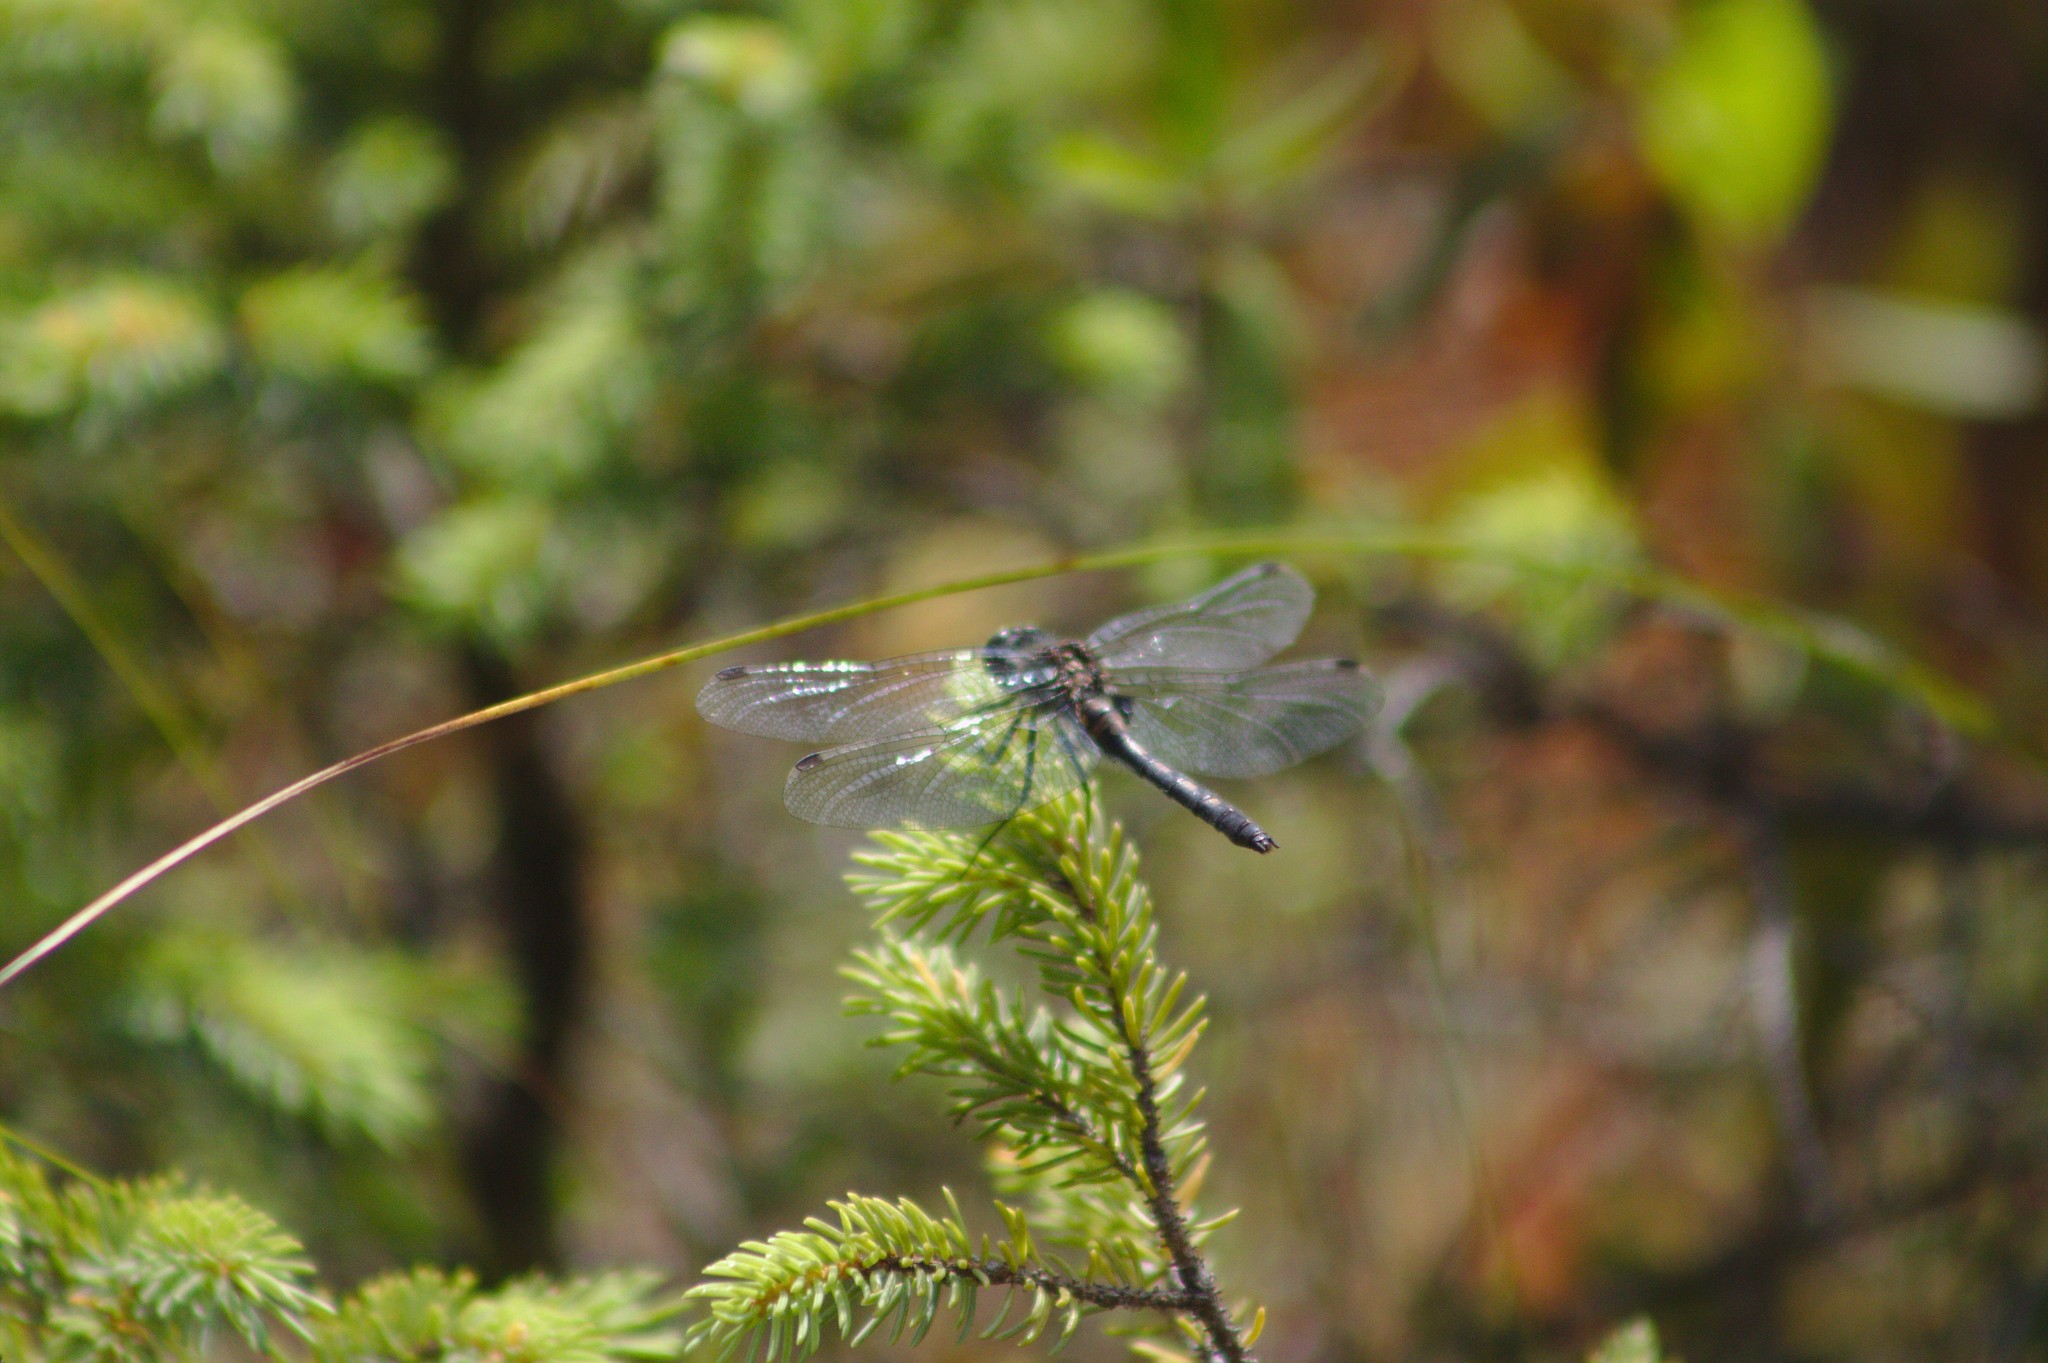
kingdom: Animalia
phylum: Arthropoda
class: Insecta
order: Odonata
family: Libellulidae
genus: Leucorrhinia
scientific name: Leucorrhinia intacta
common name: Dot-tailed whiteface
